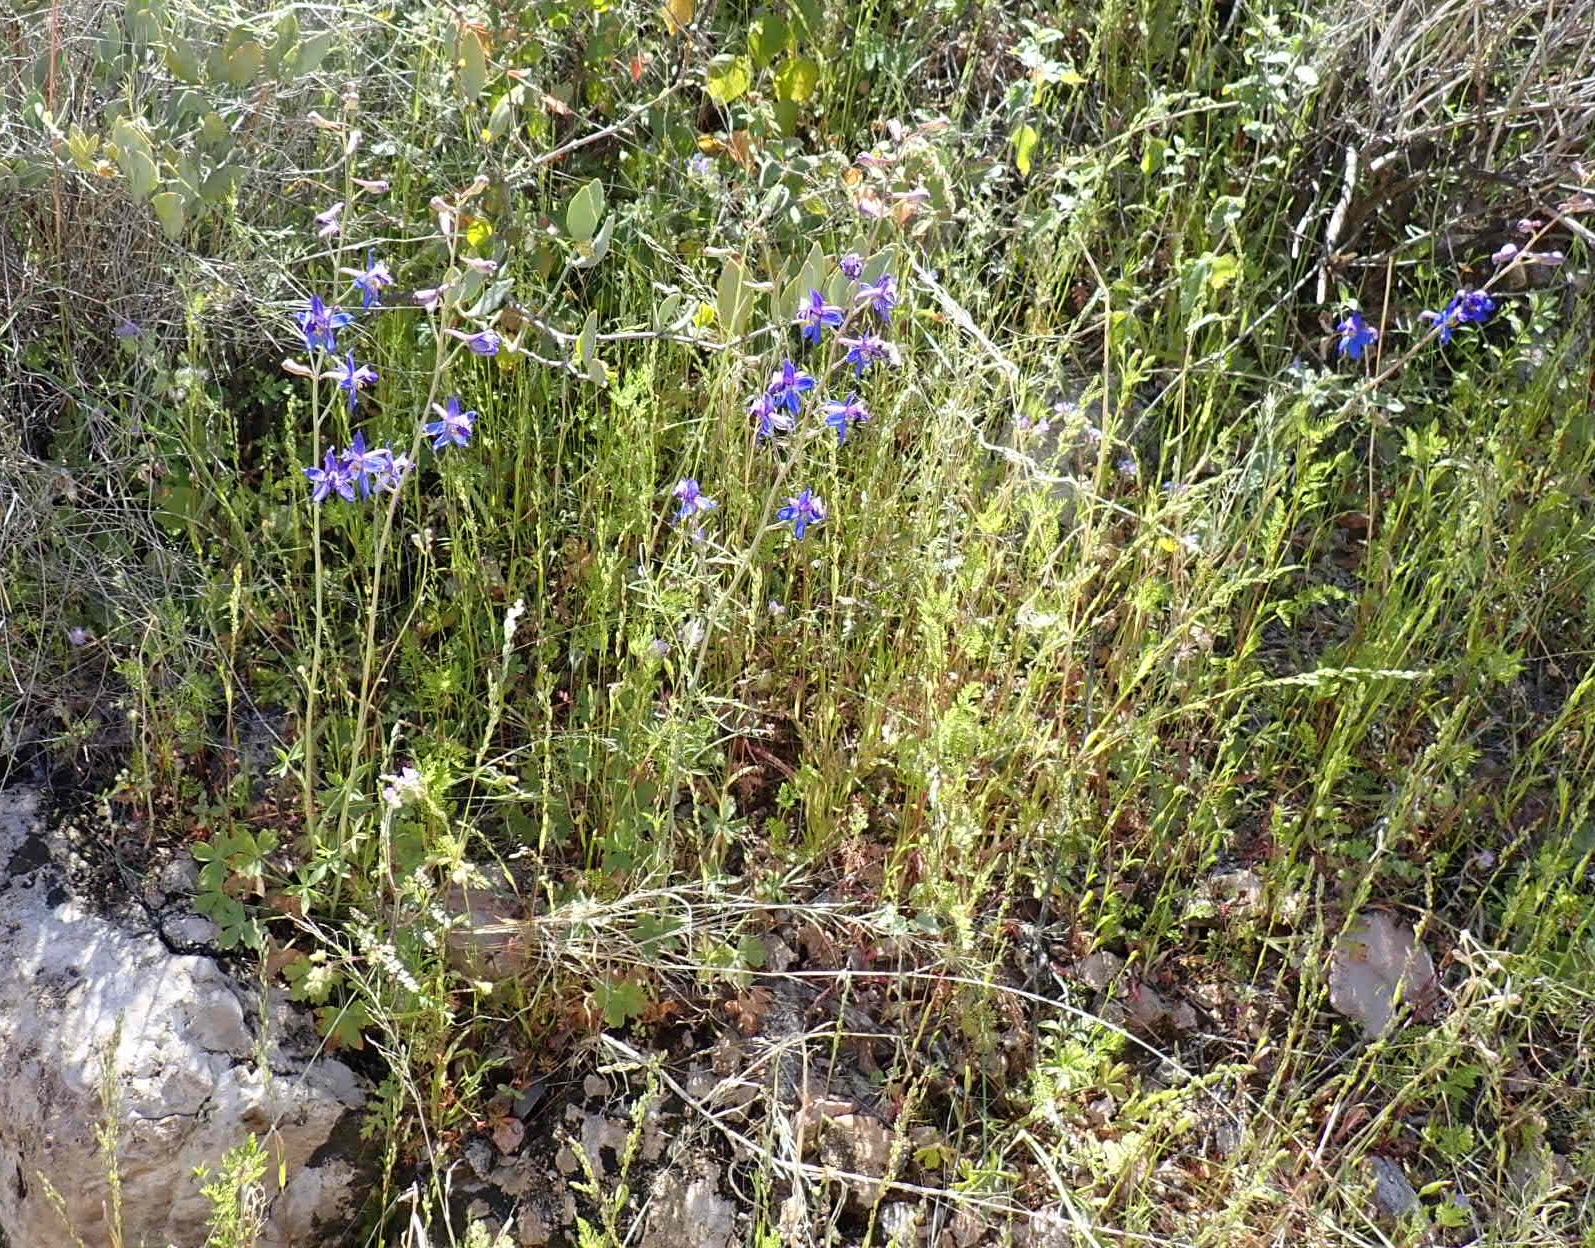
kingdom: Plantae
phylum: Tracheophyta
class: Magnoliopsida
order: Ranunculales
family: Ranunculaceae
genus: Delphinium
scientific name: Delphinium scaposum
